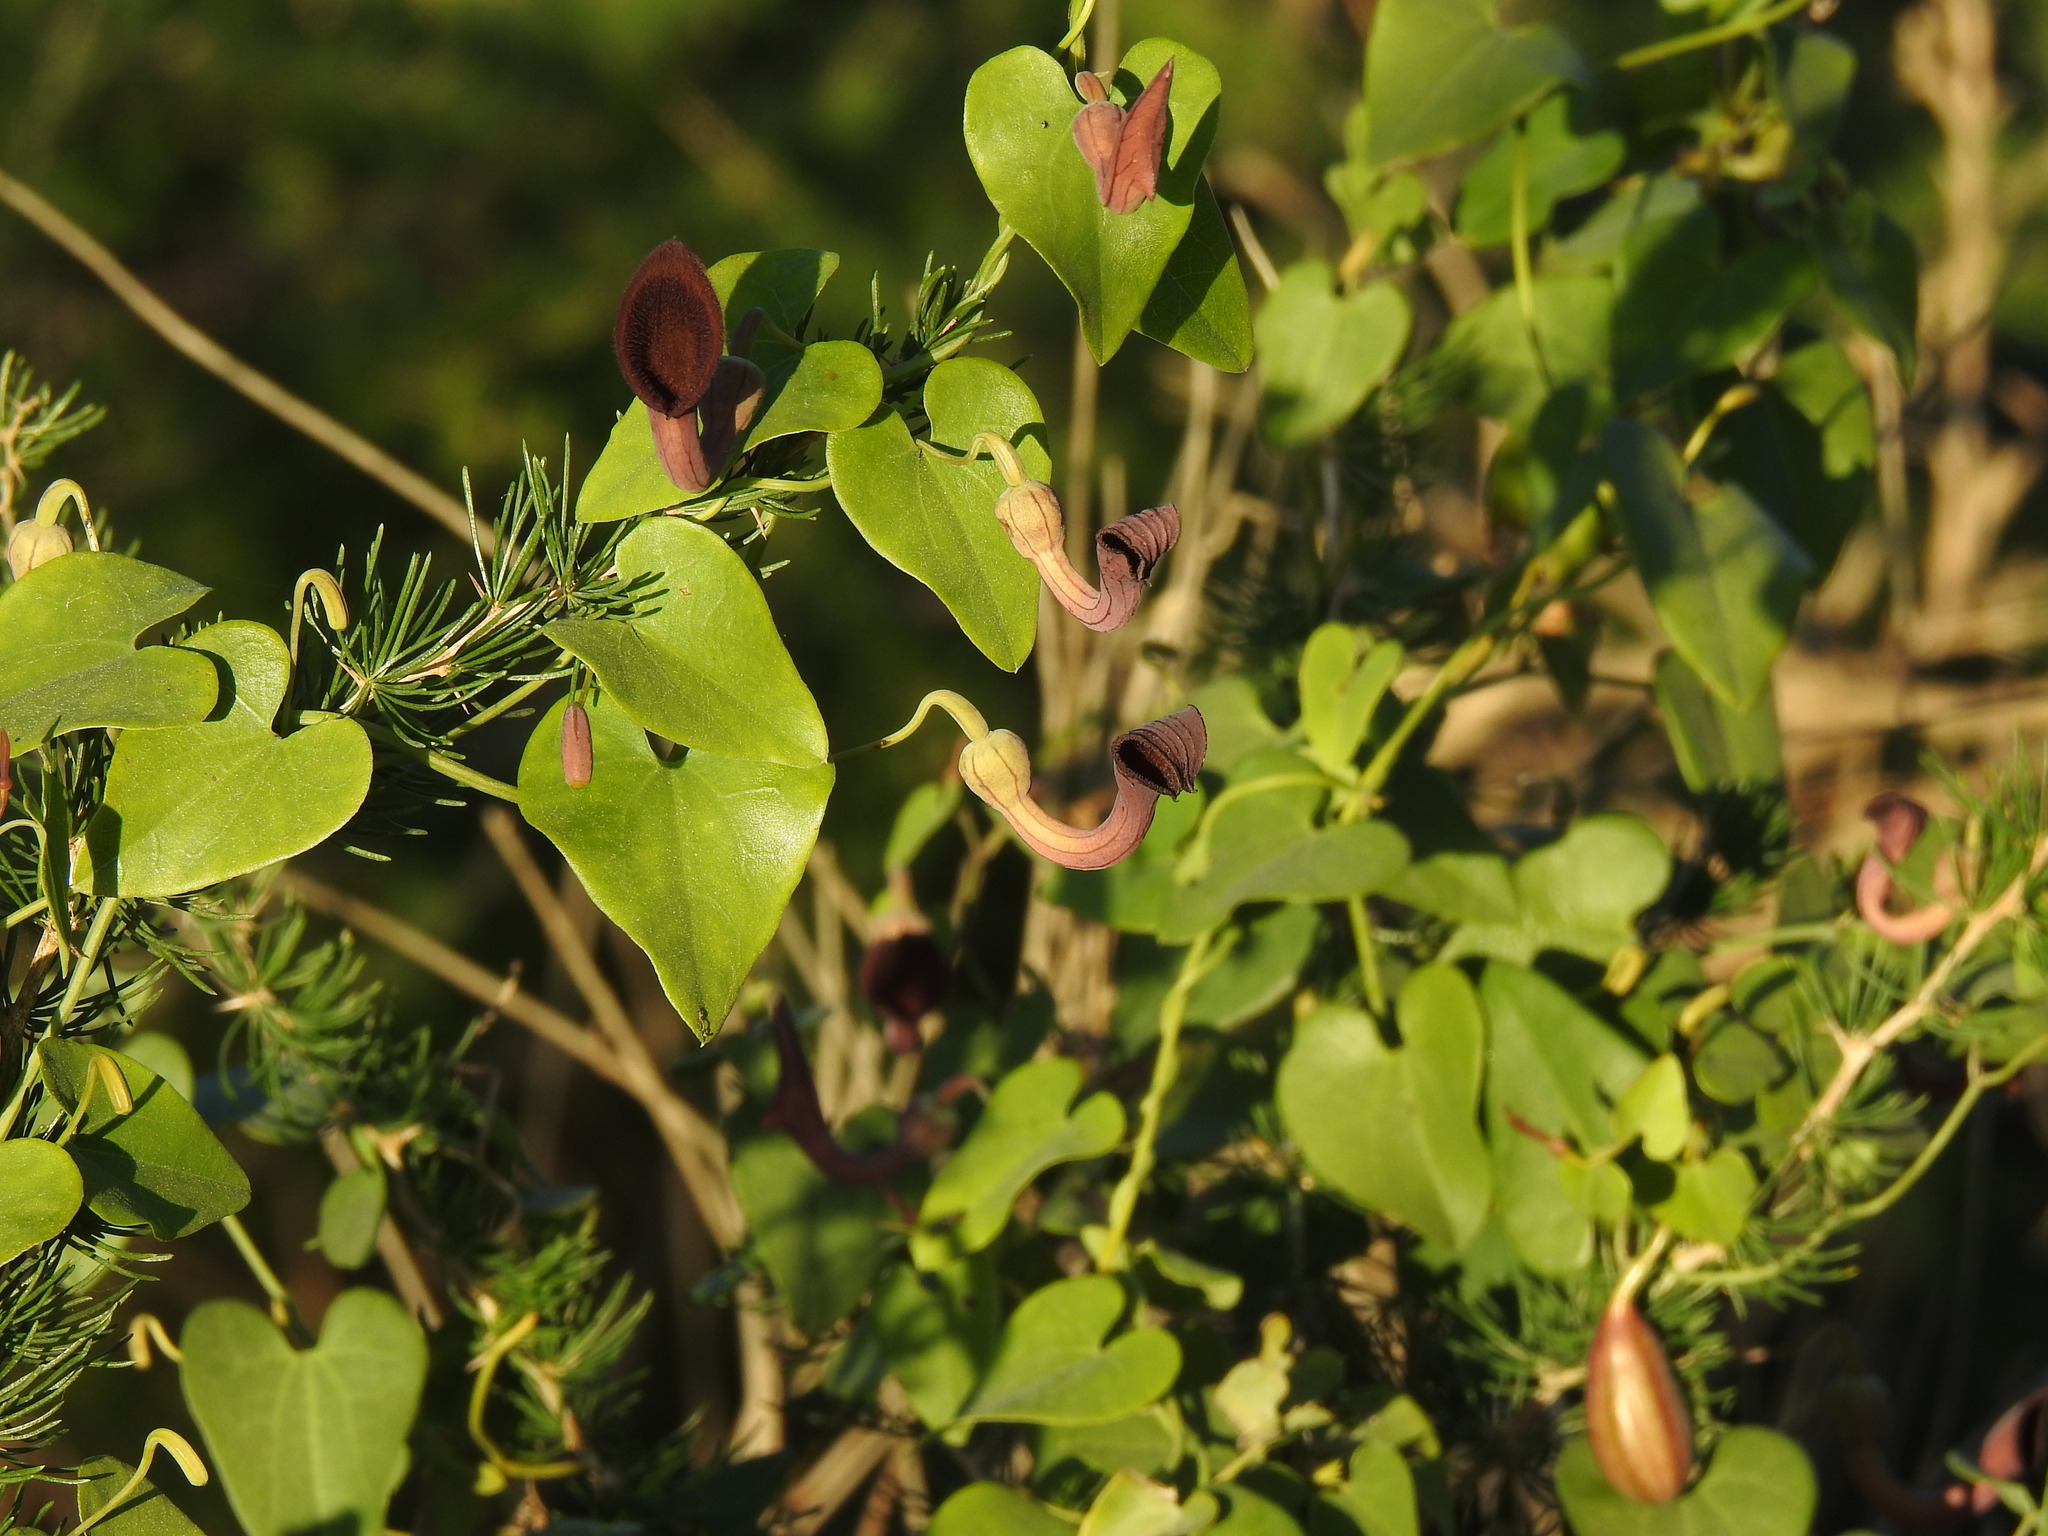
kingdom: Plantae
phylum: Tracheophyta
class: Magnoliopsida
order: Piperales
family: Aristolochiaceae
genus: Aristolochia
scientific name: Aristolochia baetica
